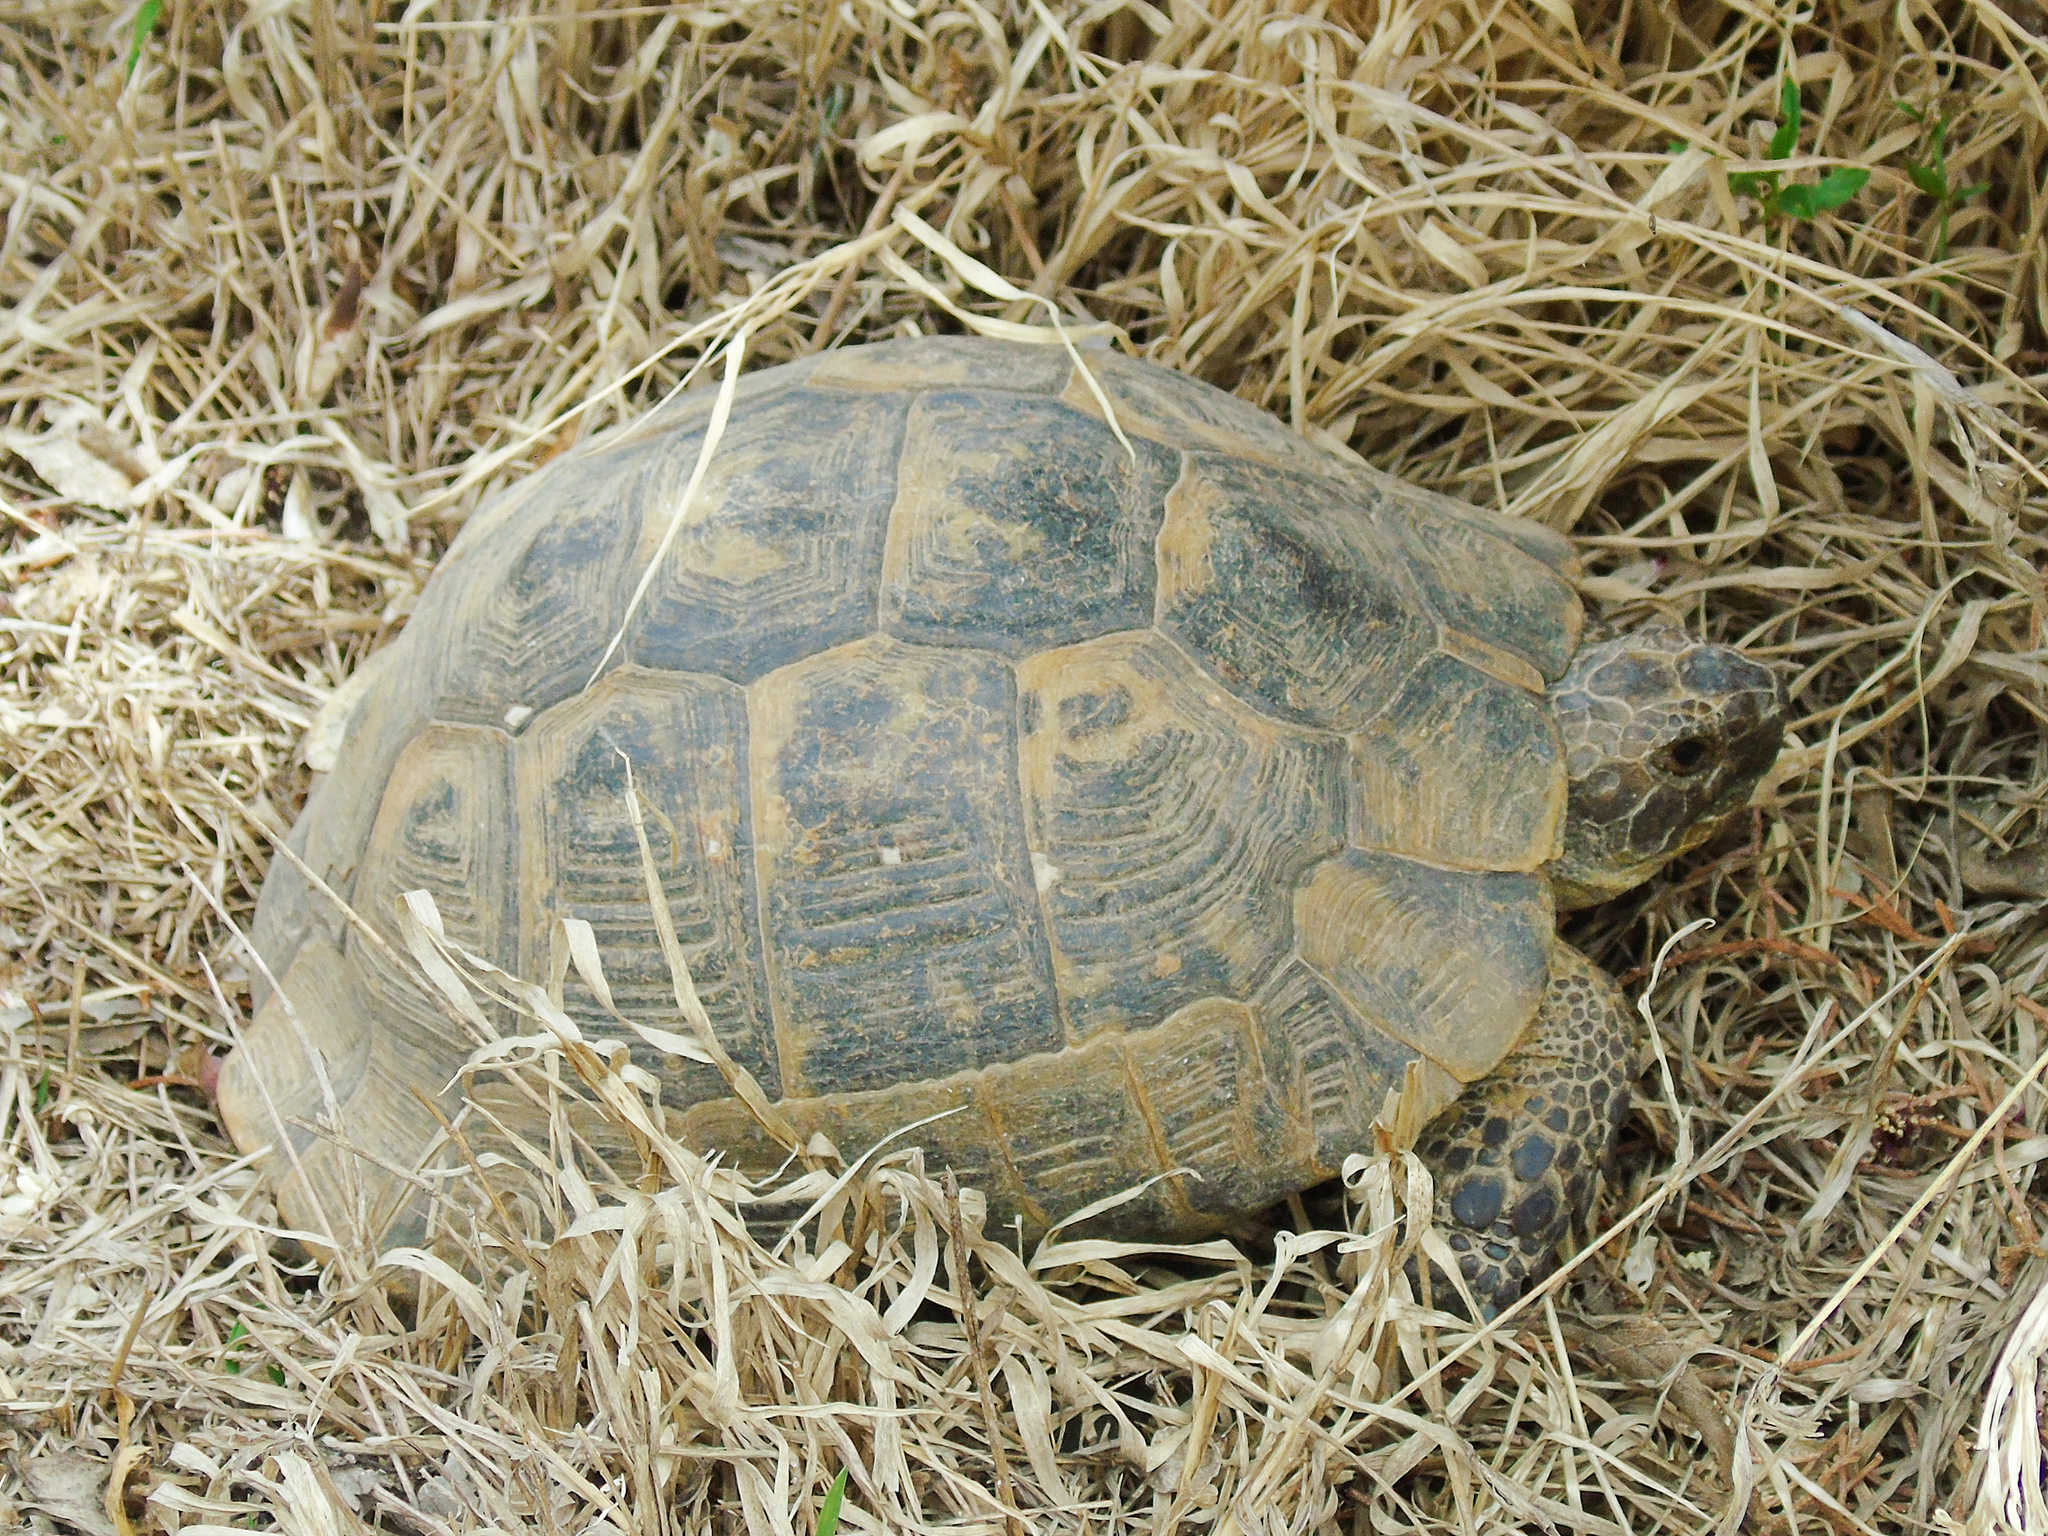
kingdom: Animalia
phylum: Chordata
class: Testudines
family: Testudinidae
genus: Testudo
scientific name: Testudo graeca
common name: Common tortoise
